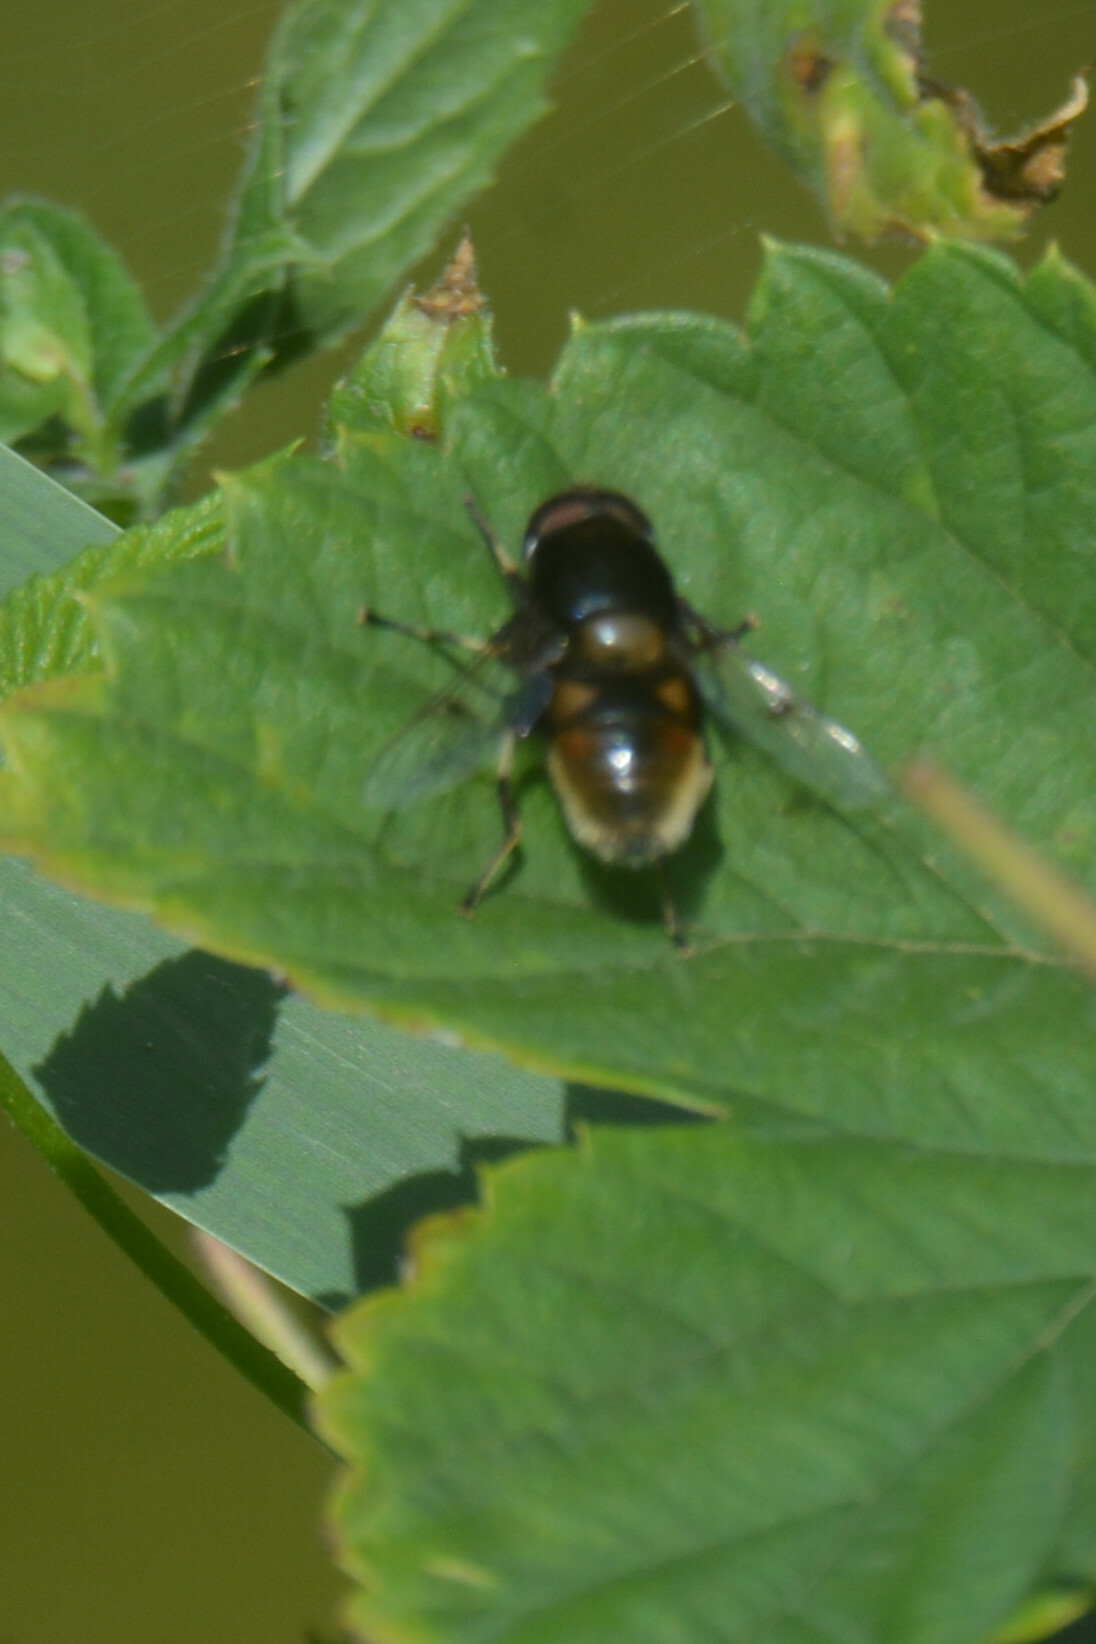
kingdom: Animalia
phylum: Arthropoda
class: Insecta
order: Diptera
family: Syrphidae
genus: Eristalis
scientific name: Eristalis intricaria
